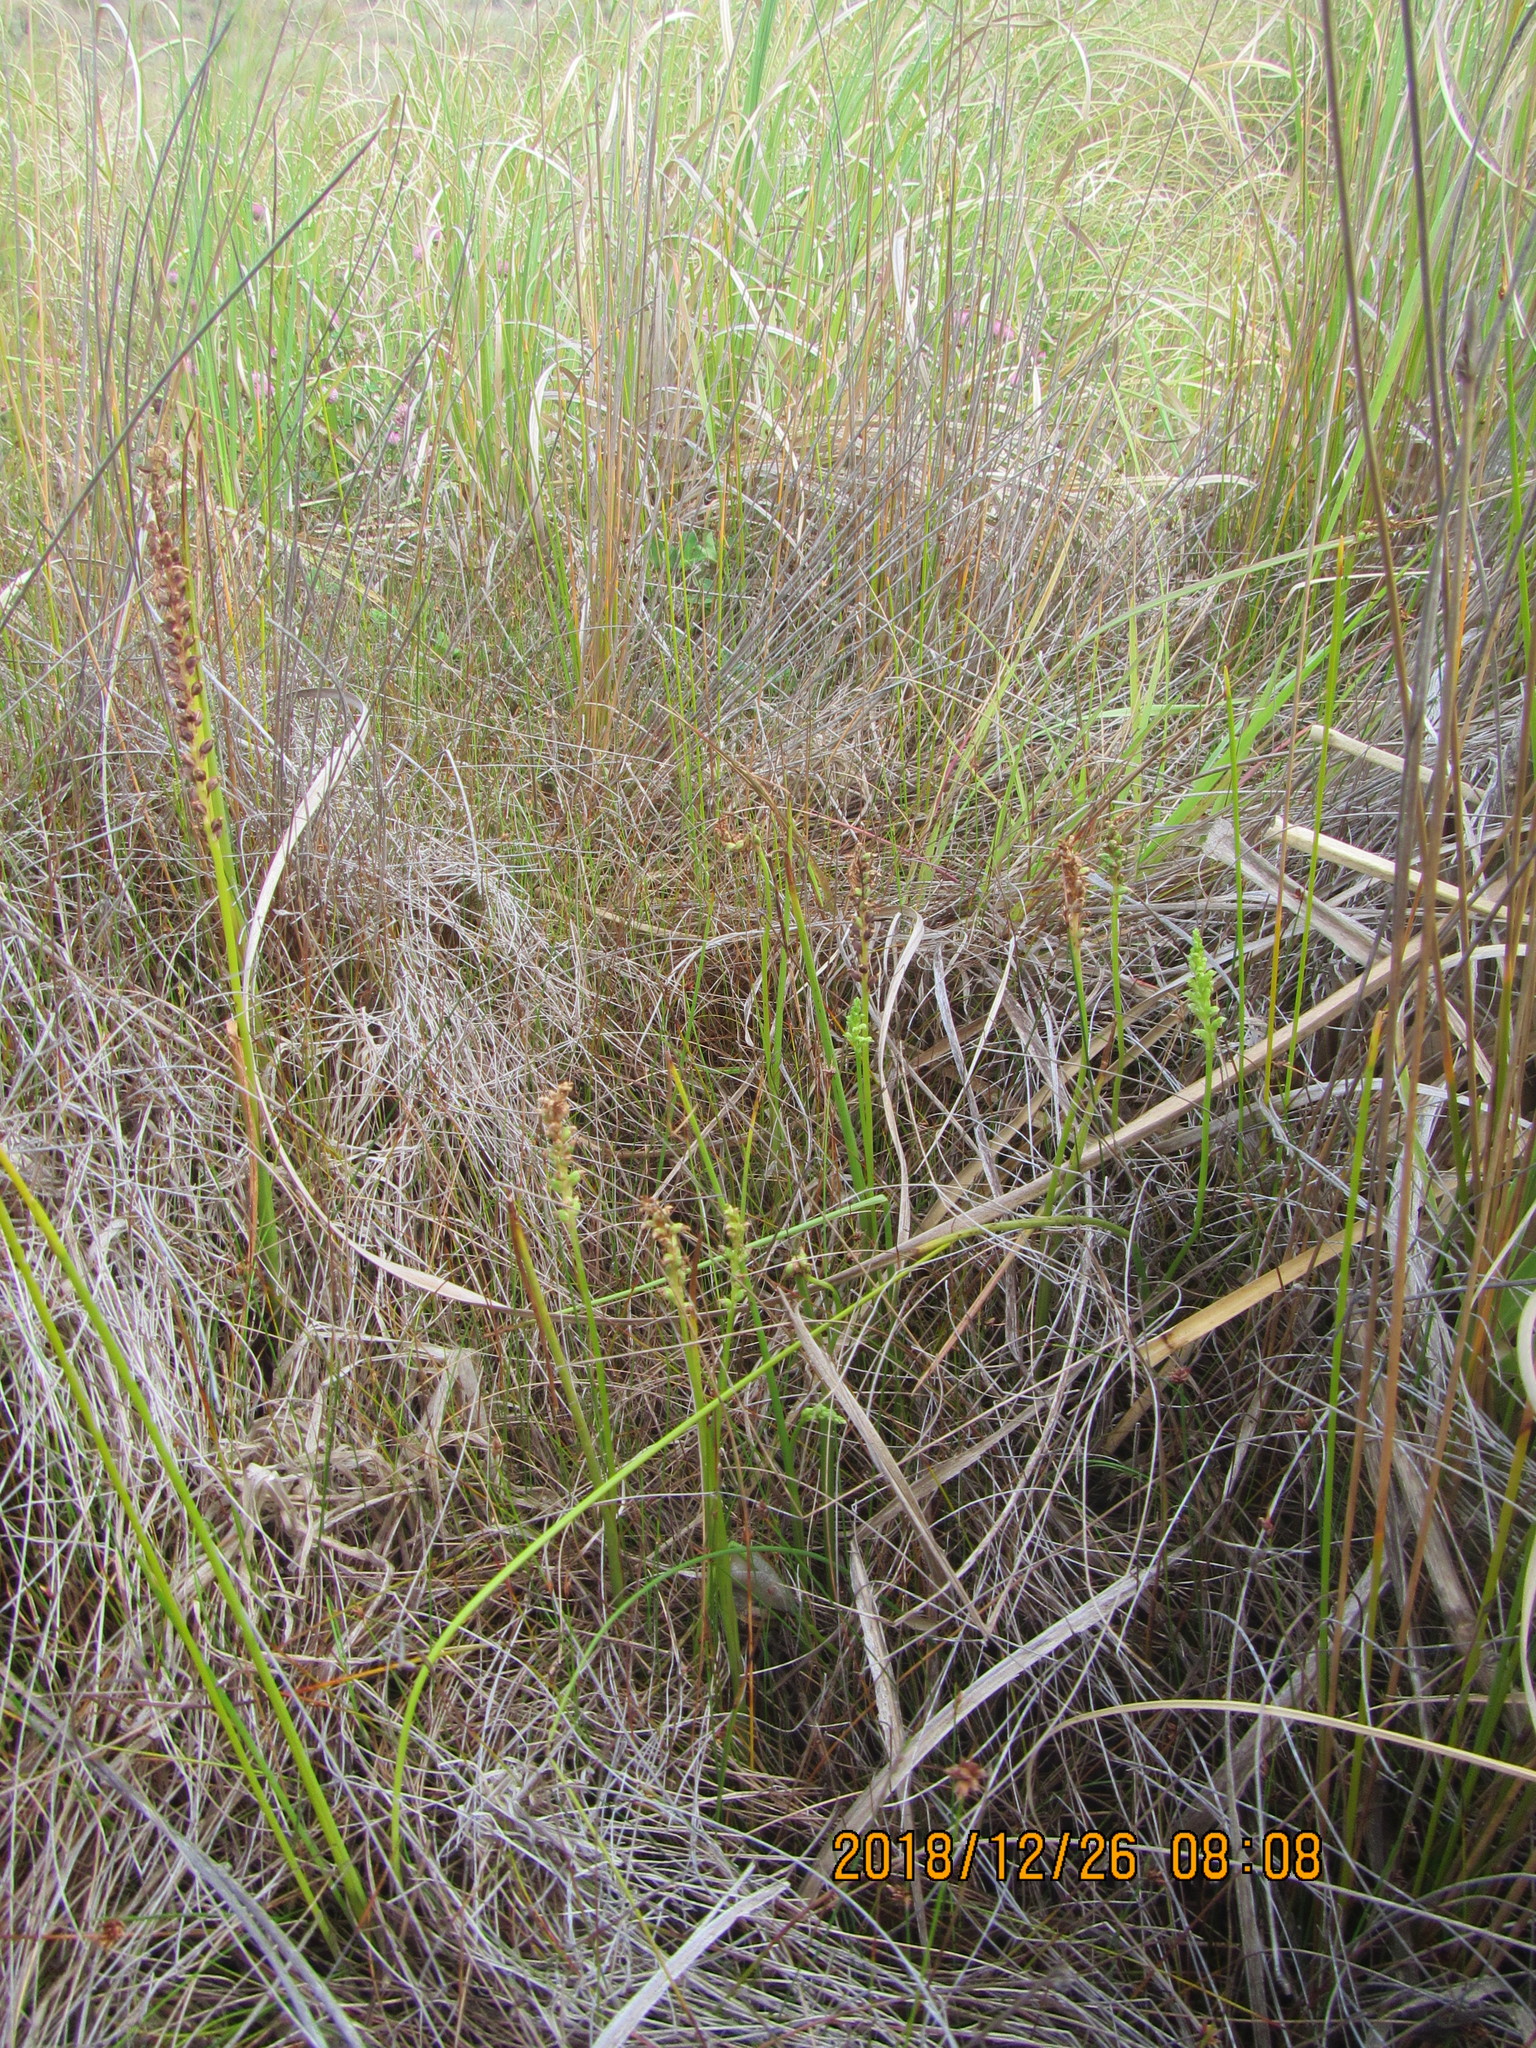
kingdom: Plantae
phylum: Tracheophyta
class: Liliopsida
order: Asparagales
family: Orchidaceae
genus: Microtis
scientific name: Microtis unifolia
